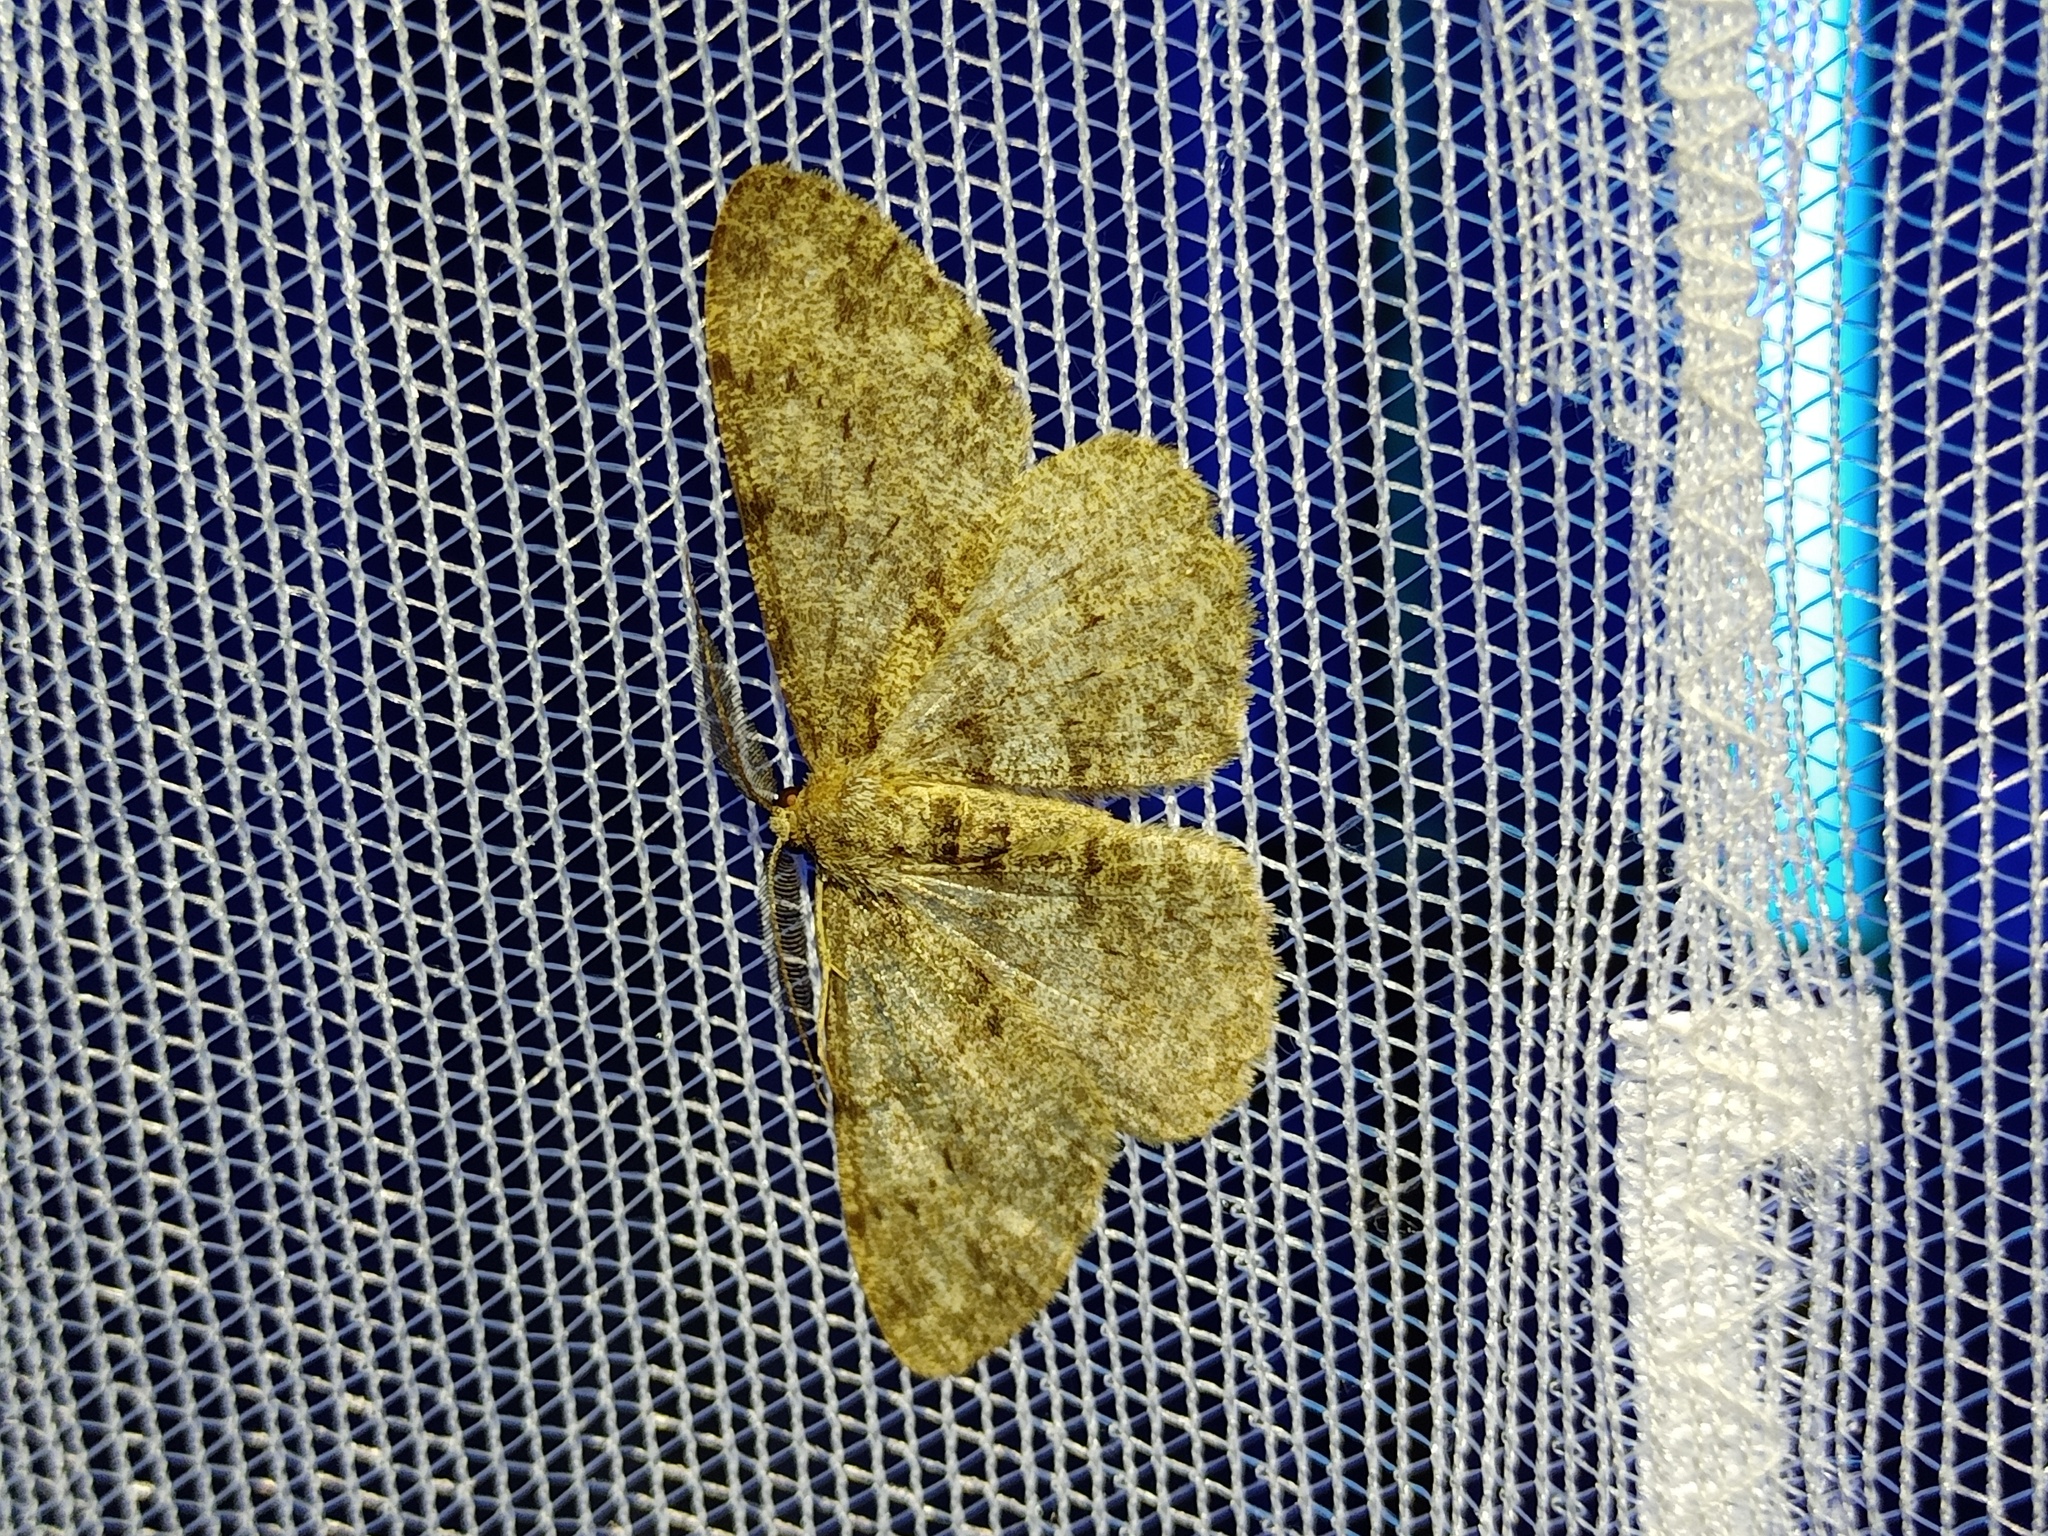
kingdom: Animalia
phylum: Arthropoda
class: Insecta
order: Lepidoptera
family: Geometridae
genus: Hypomecis
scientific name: Hypomecis punctinalis
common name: Pale oak beauty
